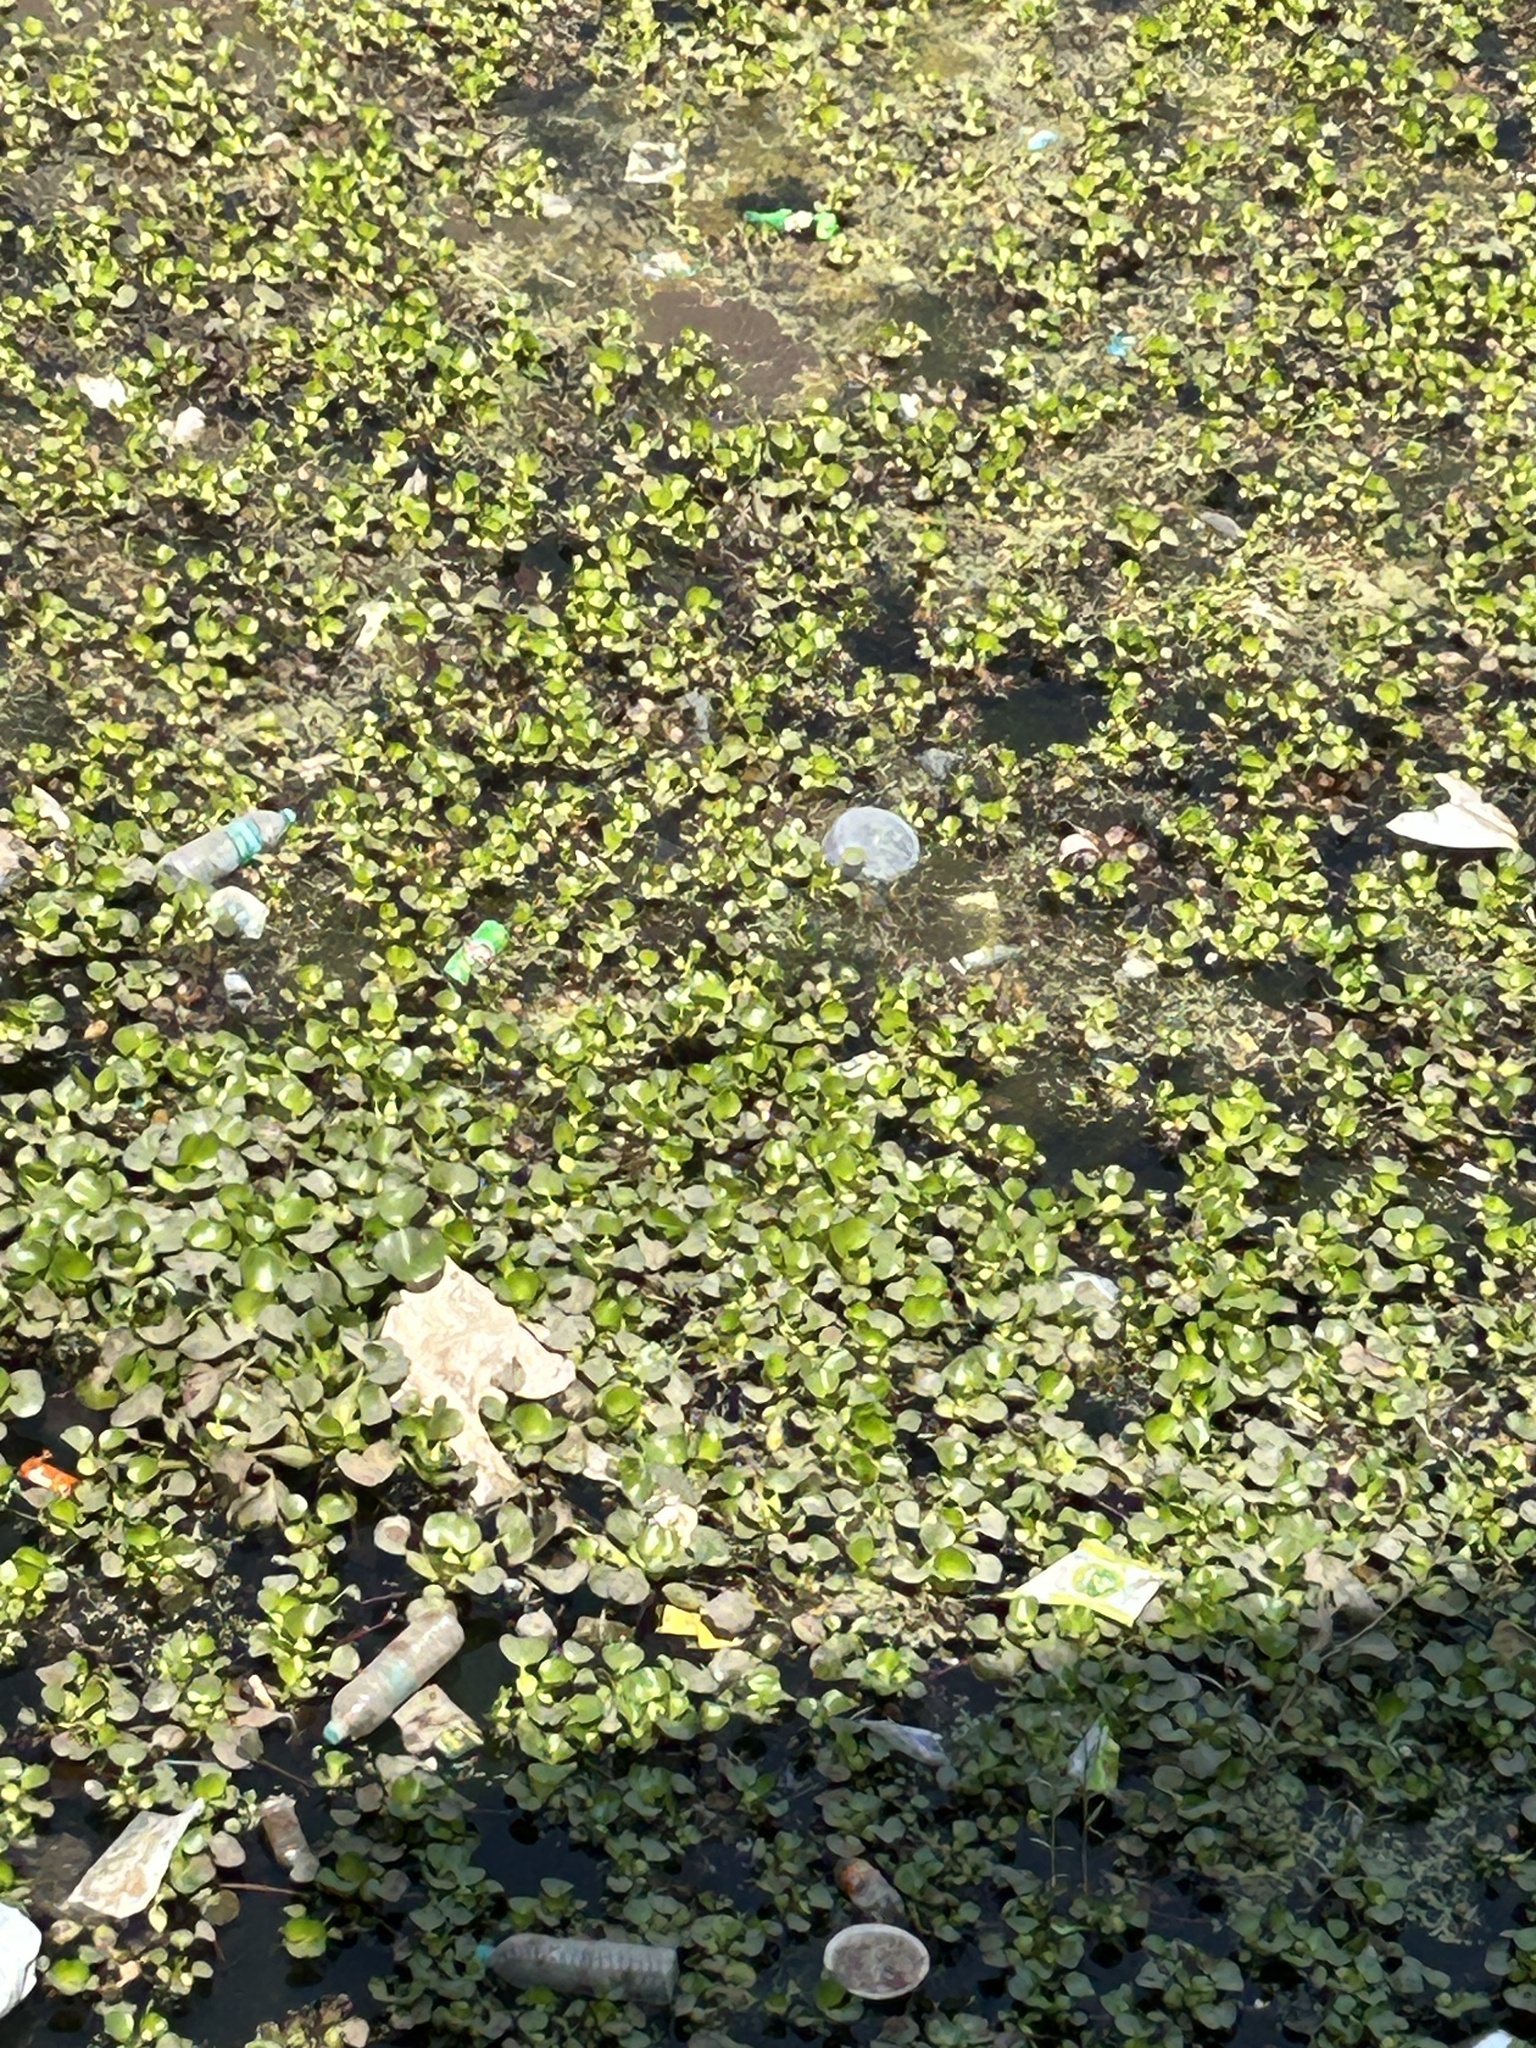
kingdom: Plantae
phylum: Tracheophyta
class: Liliopsida
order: Commelinales
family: Pontederiaceae
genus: Pontederia
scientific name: Pontederia crassipes
